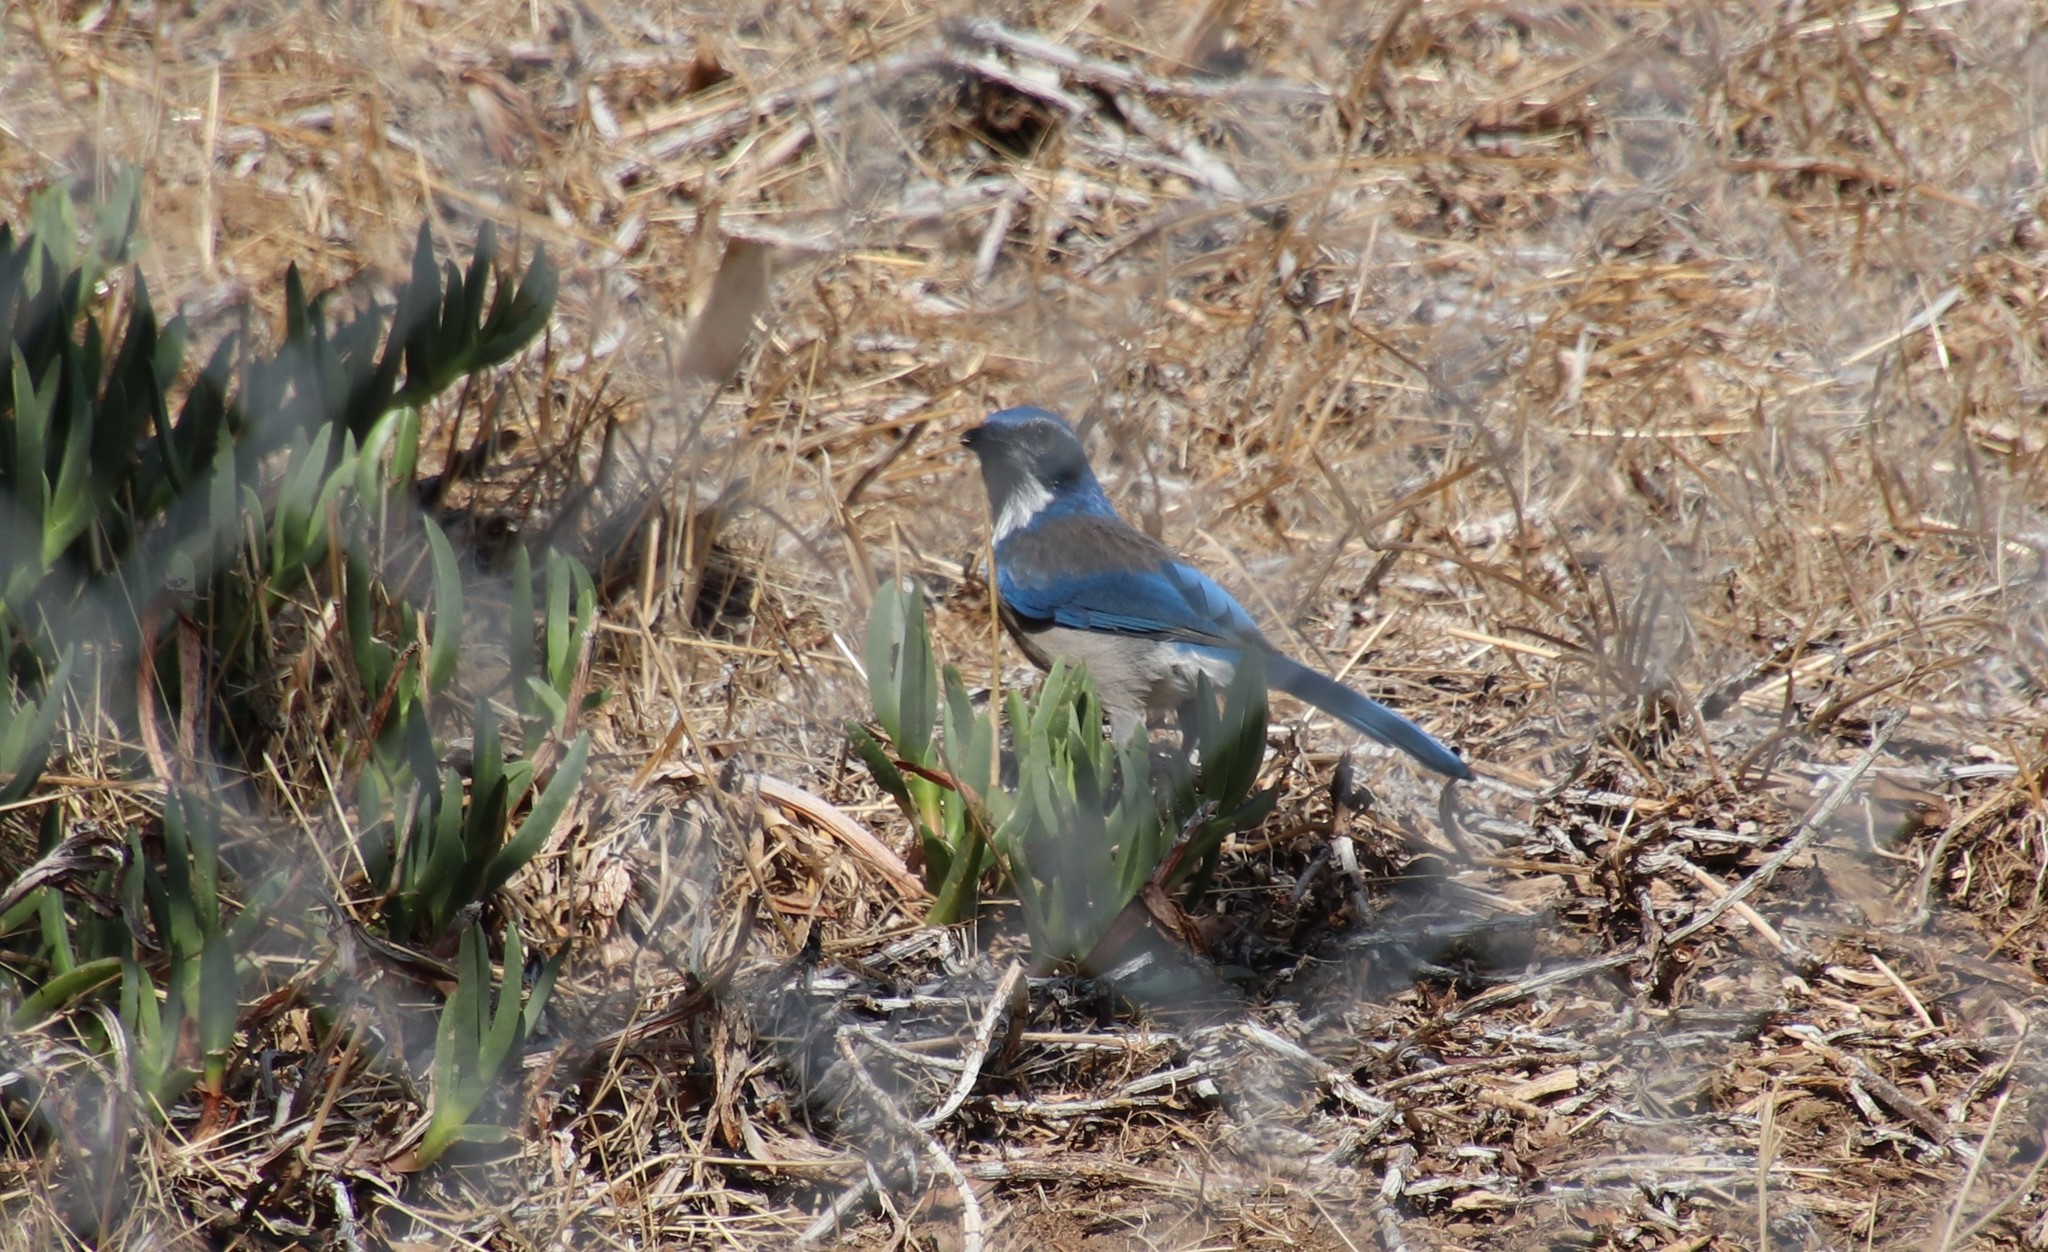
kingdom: Animalia
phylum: Chordata
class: Aves
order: Passeriformes
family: Corvidae
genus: Aphelocoma
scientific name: Aphelocoma californica
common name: California scrub-jay
